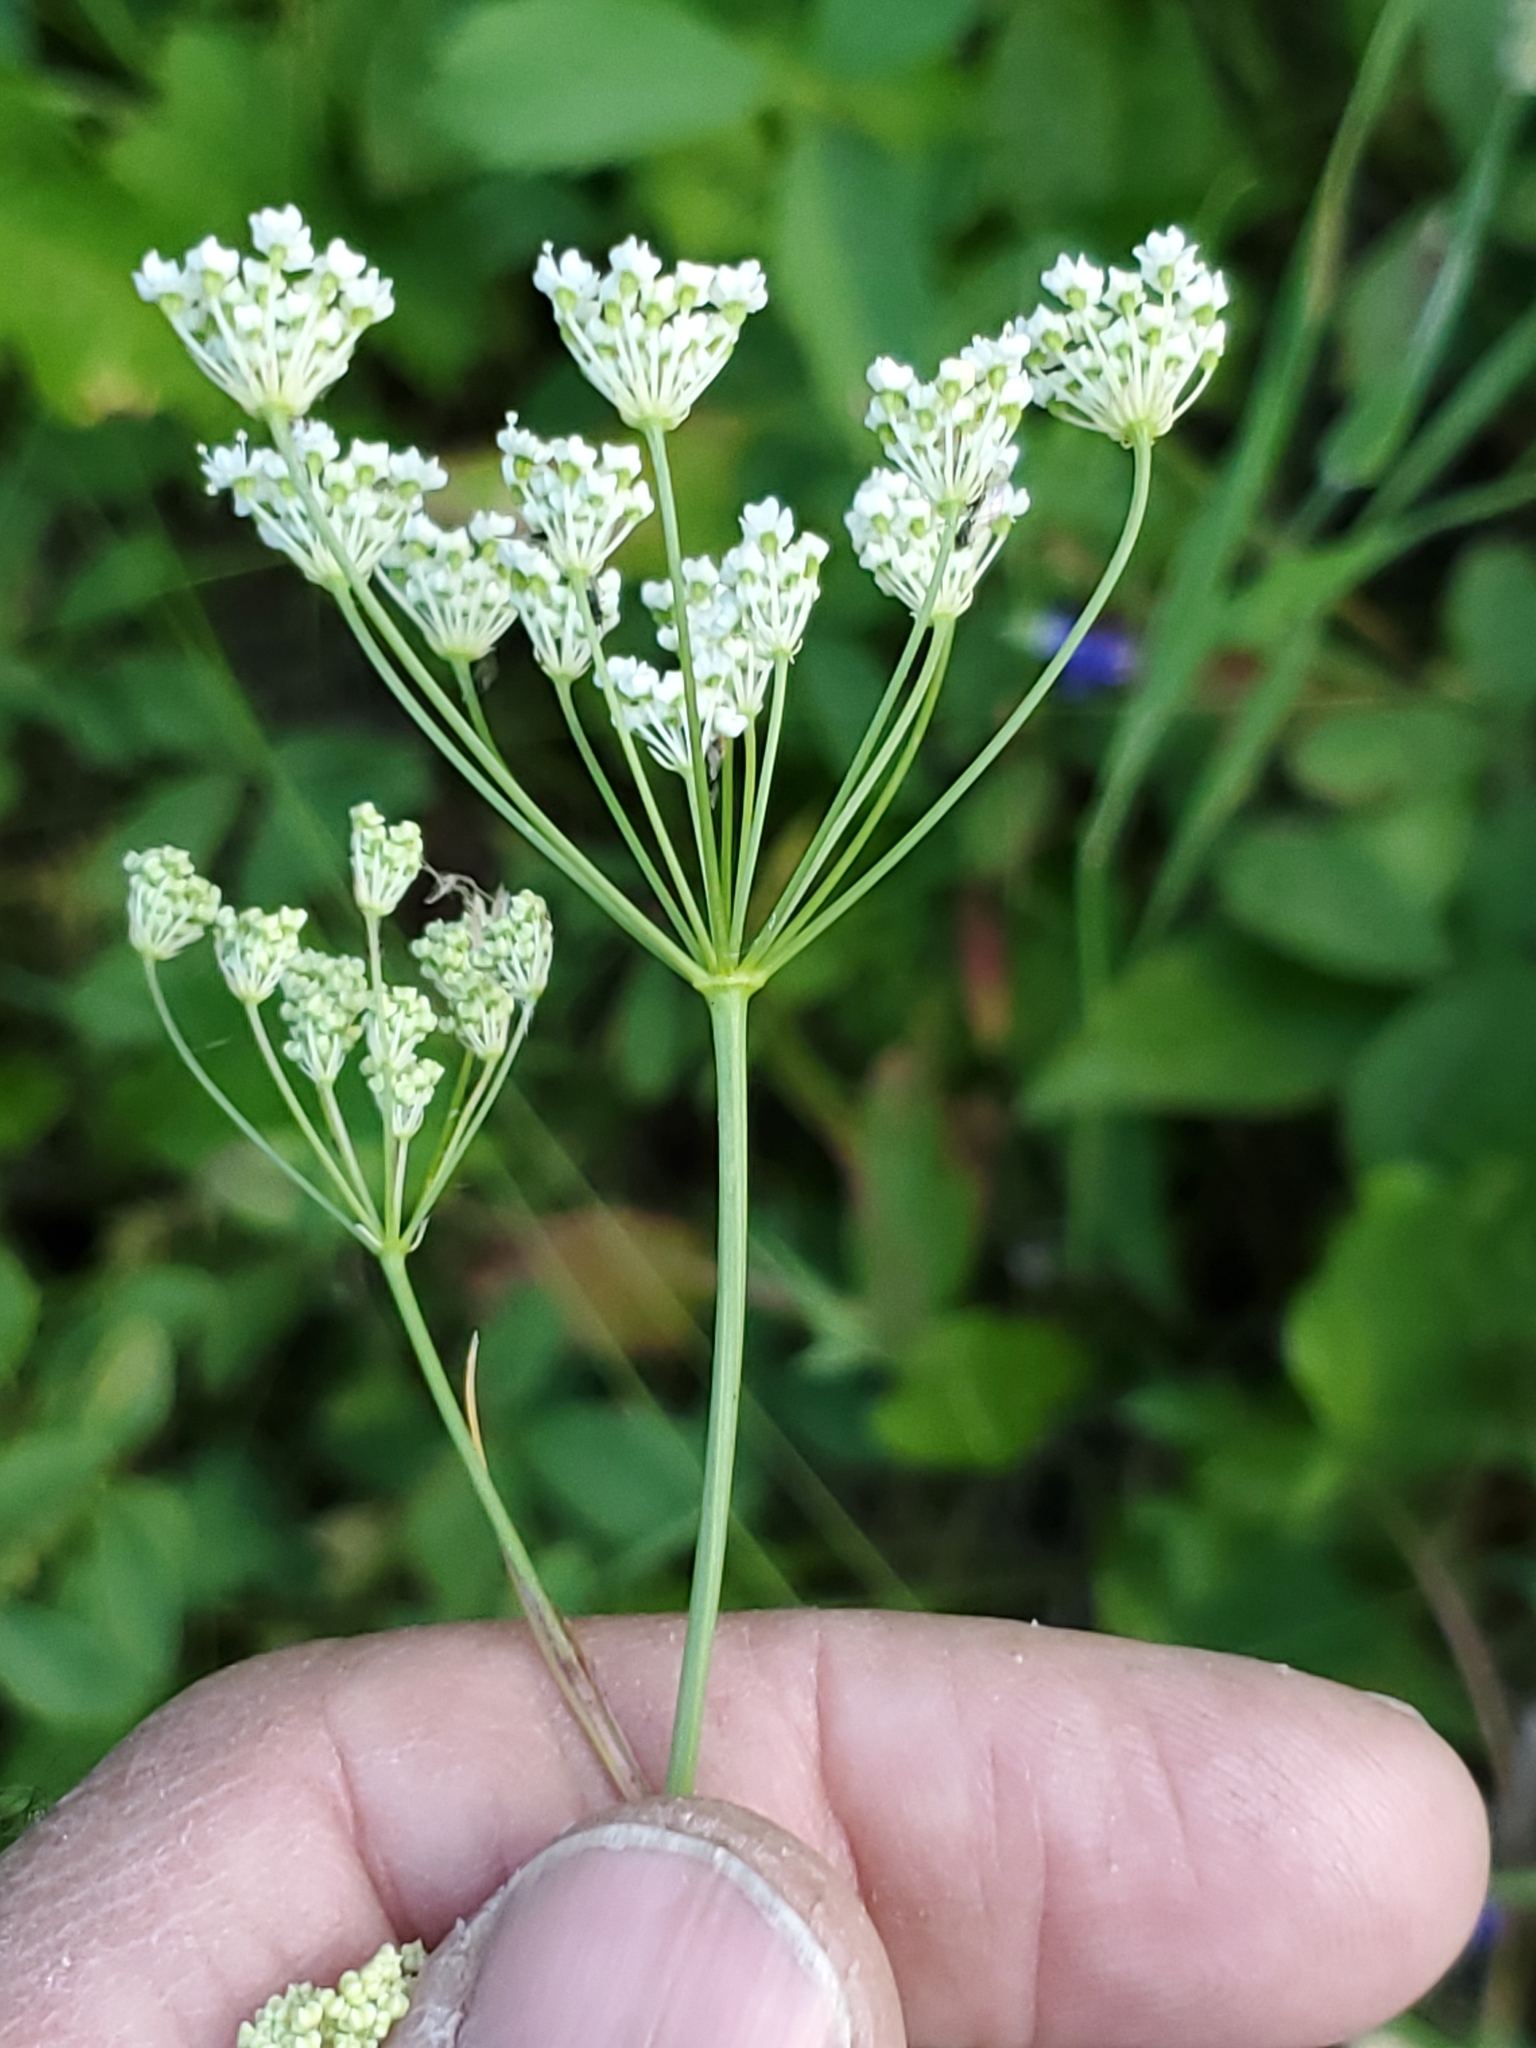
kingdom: Plantae
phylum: Tracheophyta
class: Magnoliopsida
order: Apiales
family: Apiaceae
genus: Perideridia
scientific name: Perideridia gairdneri
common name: False caraway
